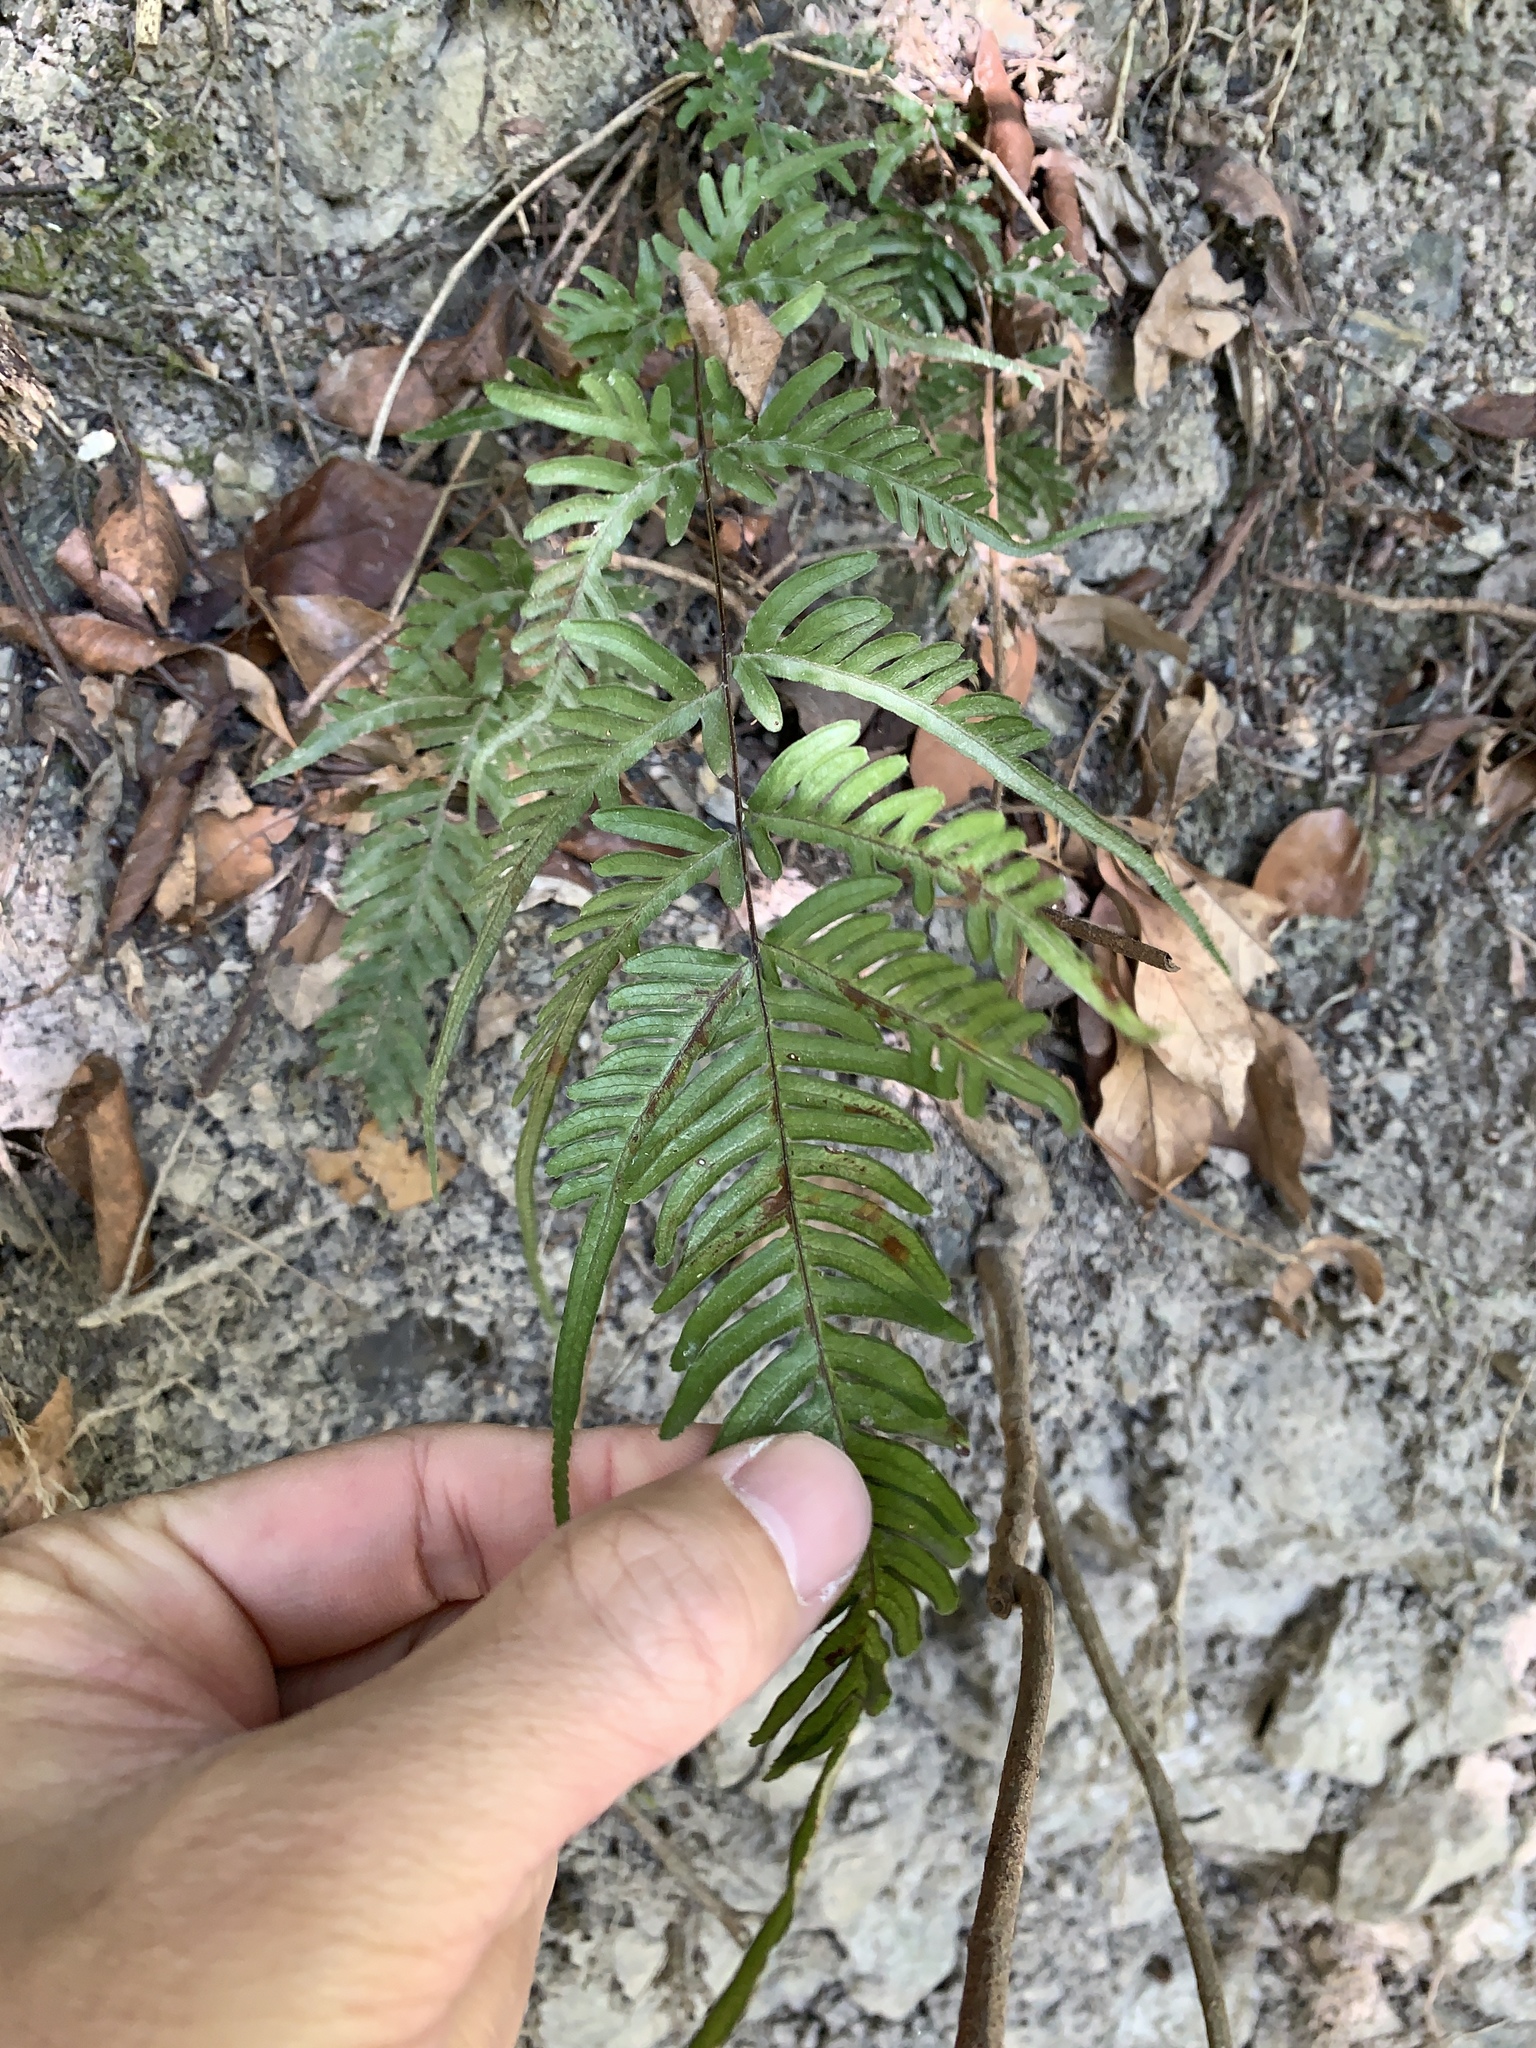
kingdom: Plantae
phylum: Tracheophyta
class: Polypodiopsida
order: Polypodiales
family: Pteridaceae
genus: Pteris
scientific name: Pteris dispar
